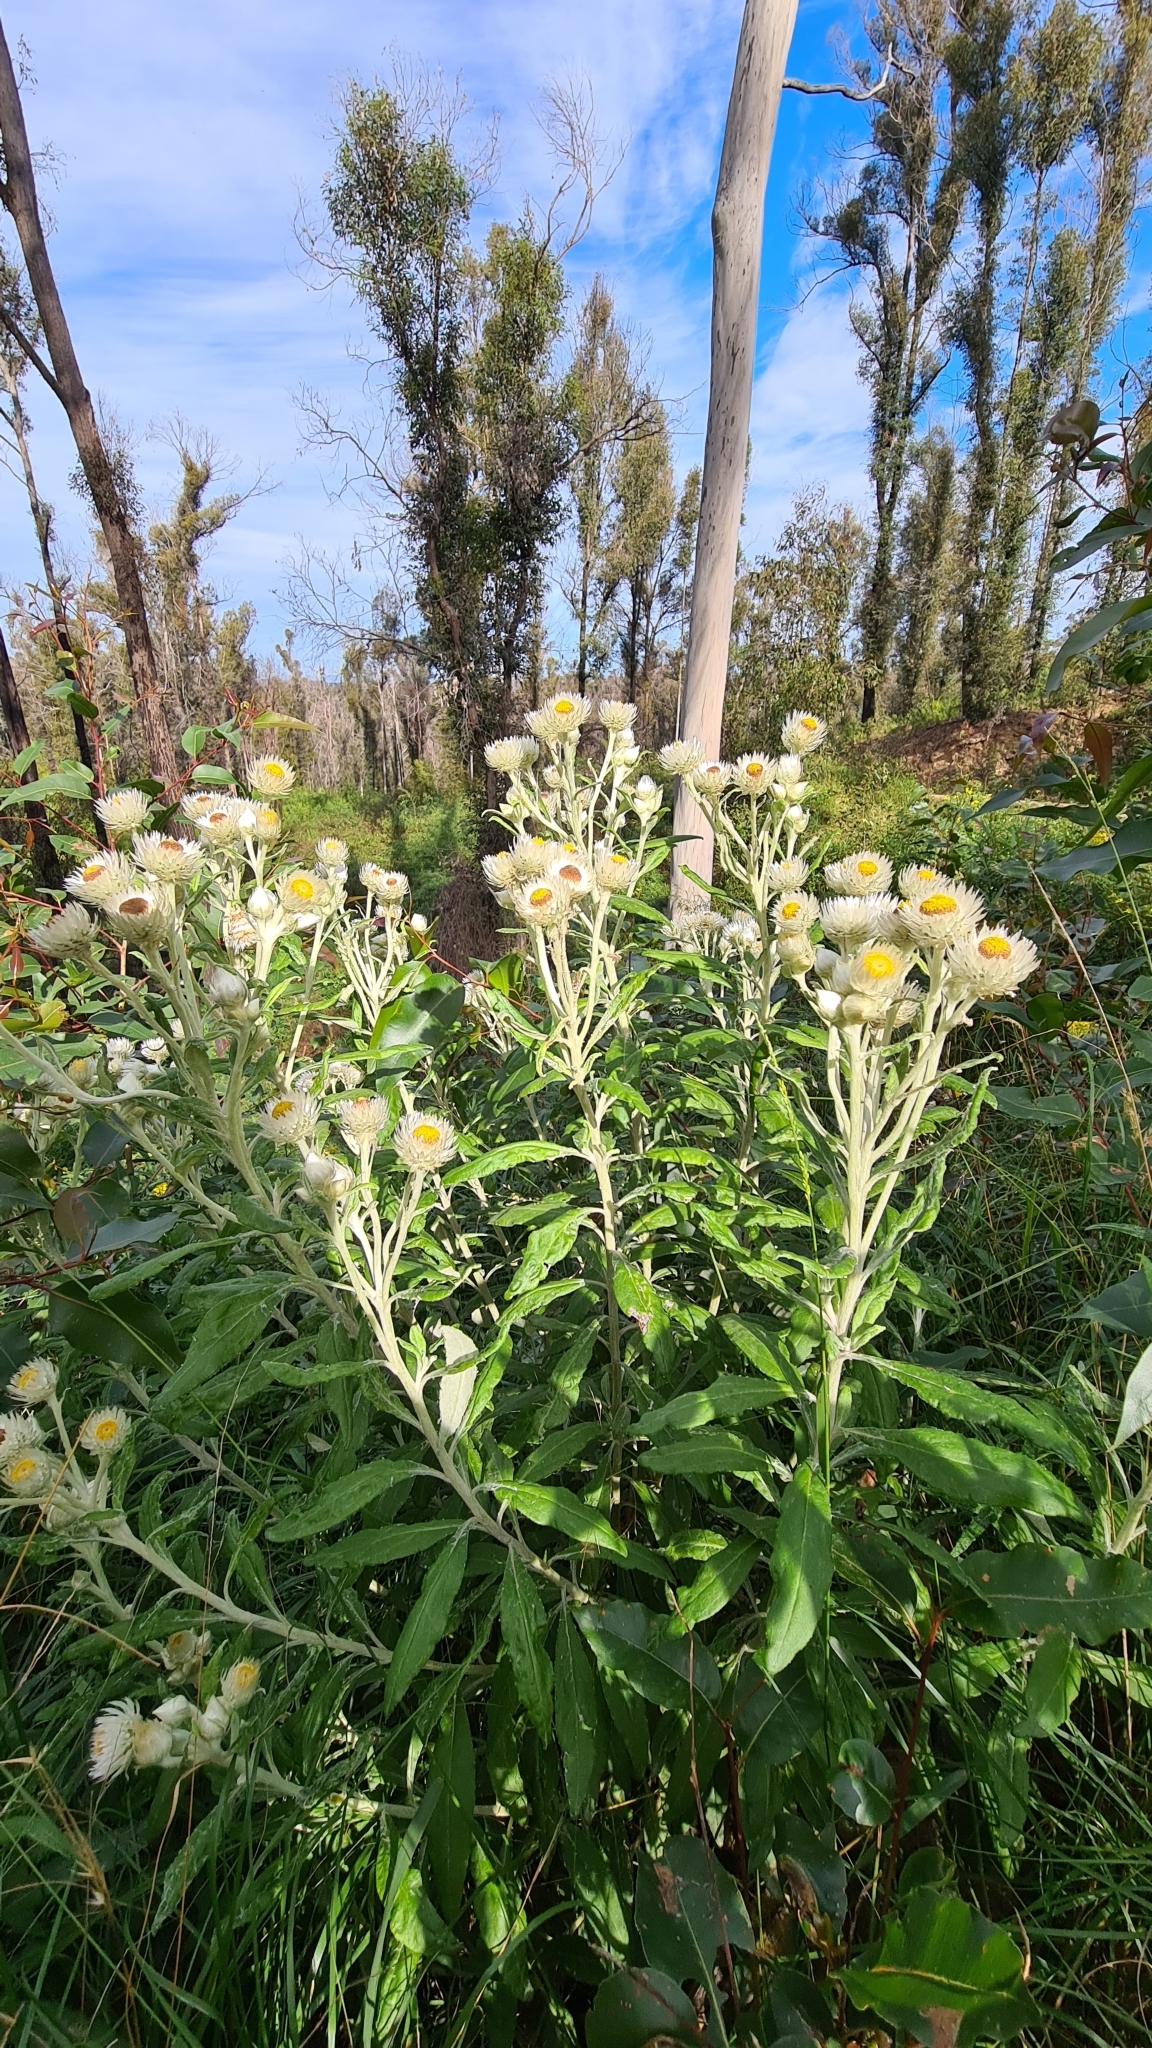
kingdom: Plantae
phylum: Tracheophyta
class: Magnoliopsida
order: Asterales
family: Asteraceae
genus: Leucozoma
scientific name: Leucozoma elatum
